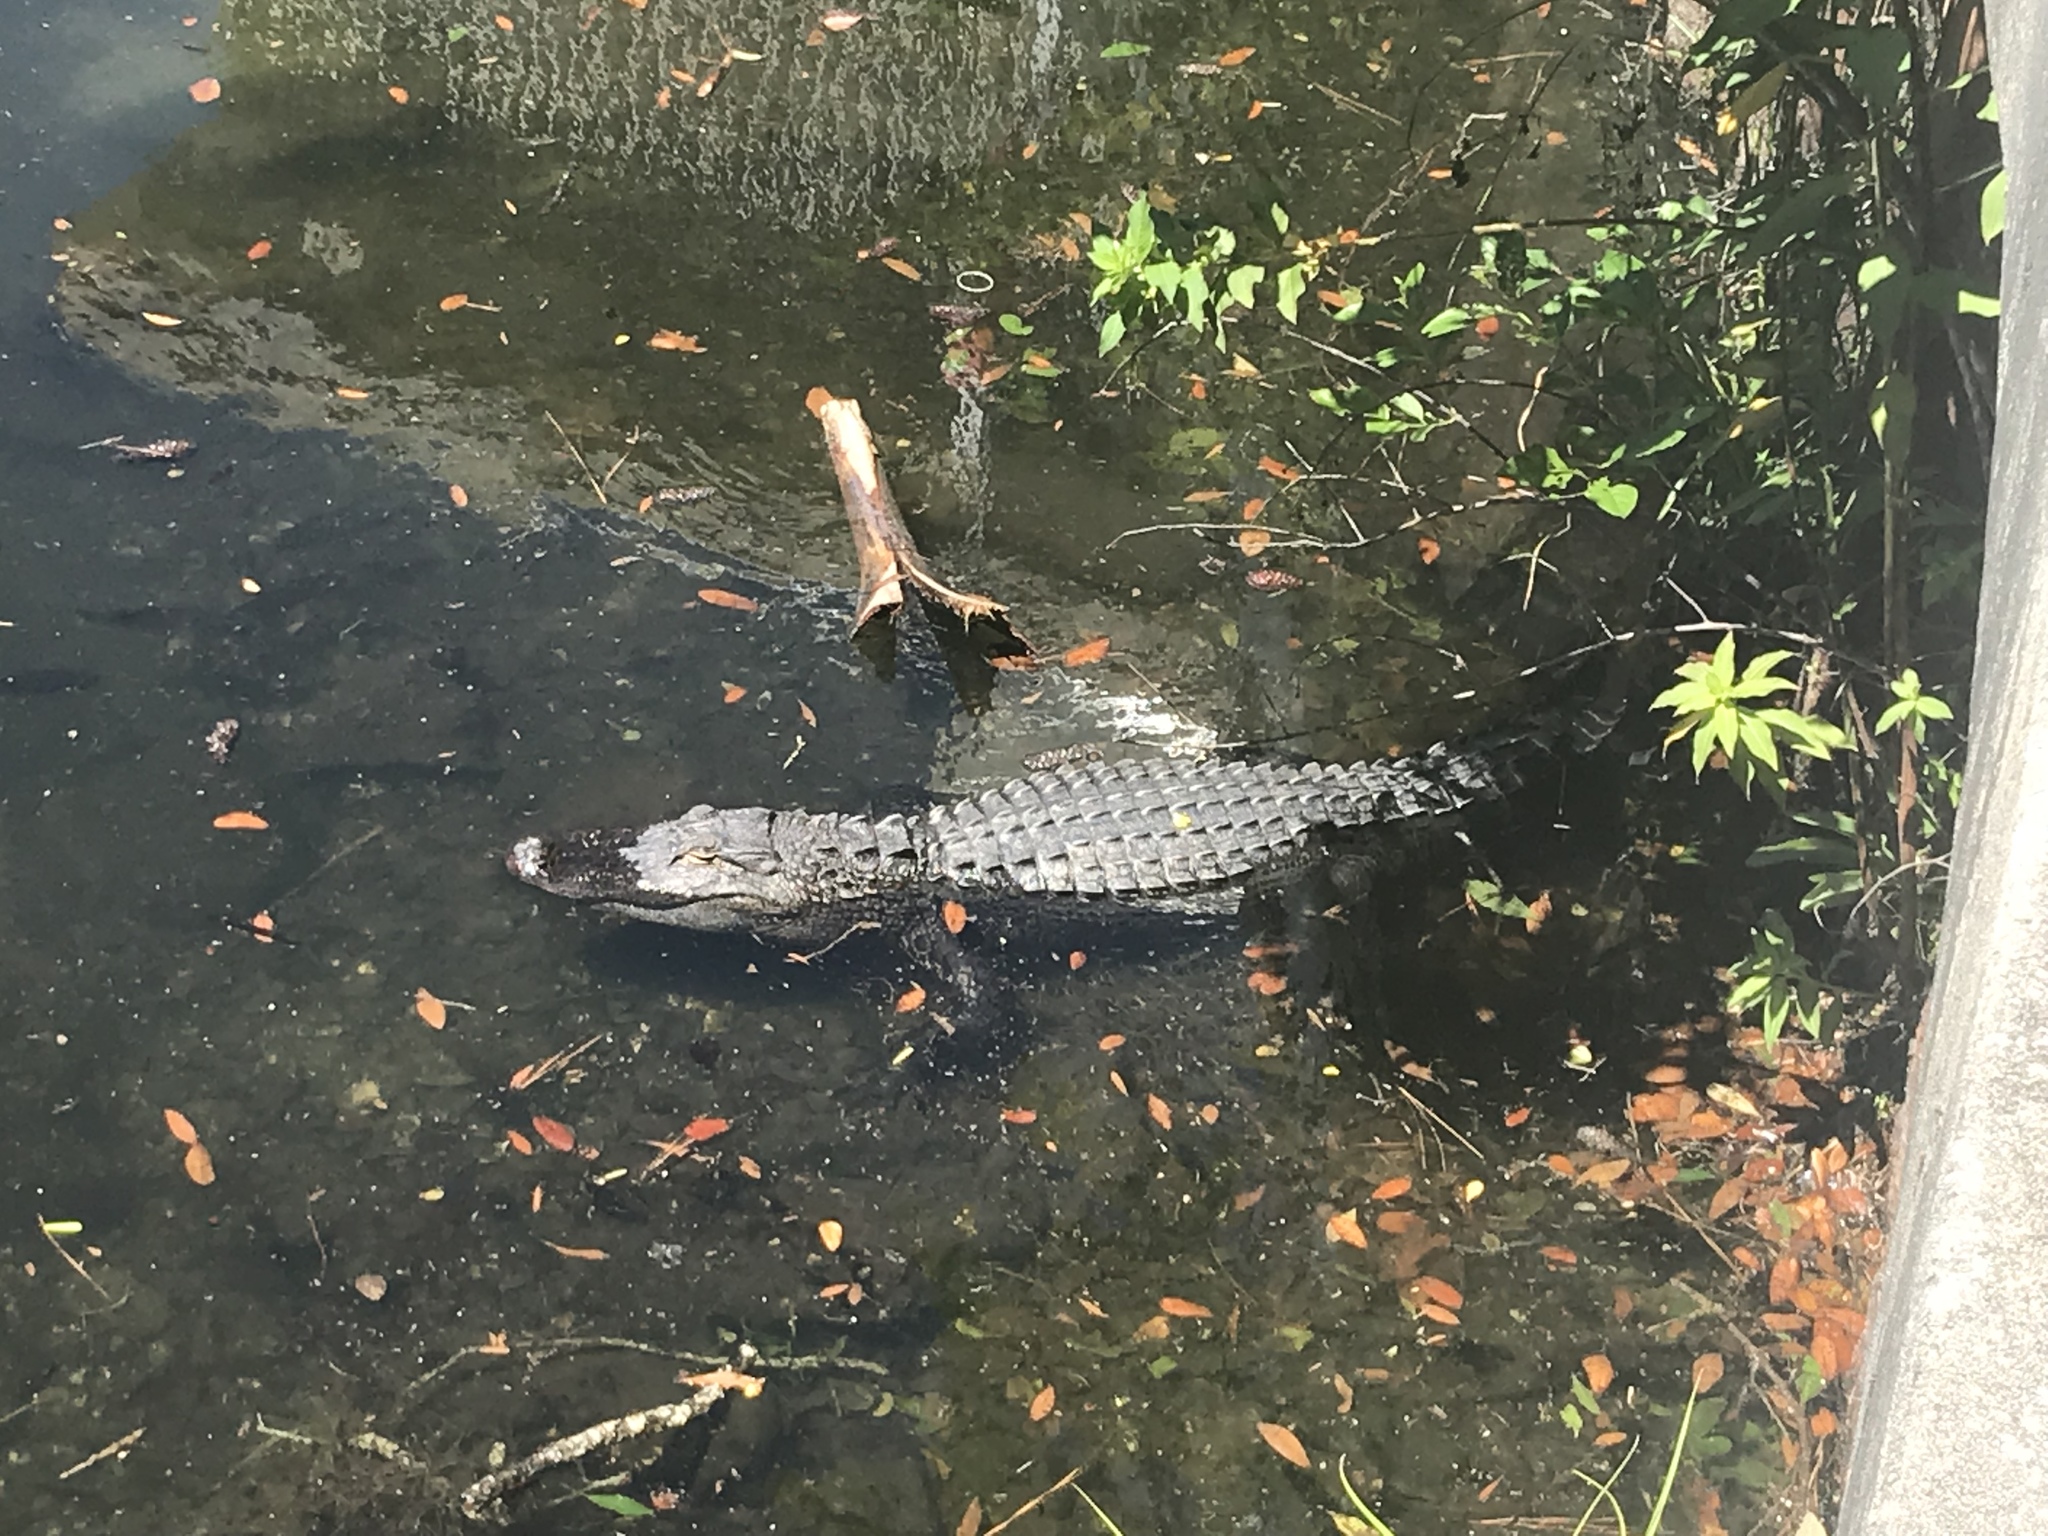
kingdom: Animalia
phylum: Chordata
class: Crocodylia
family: Alligatoridae
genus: Alligator
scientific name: Alligator mississippiensis
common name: American alligator
